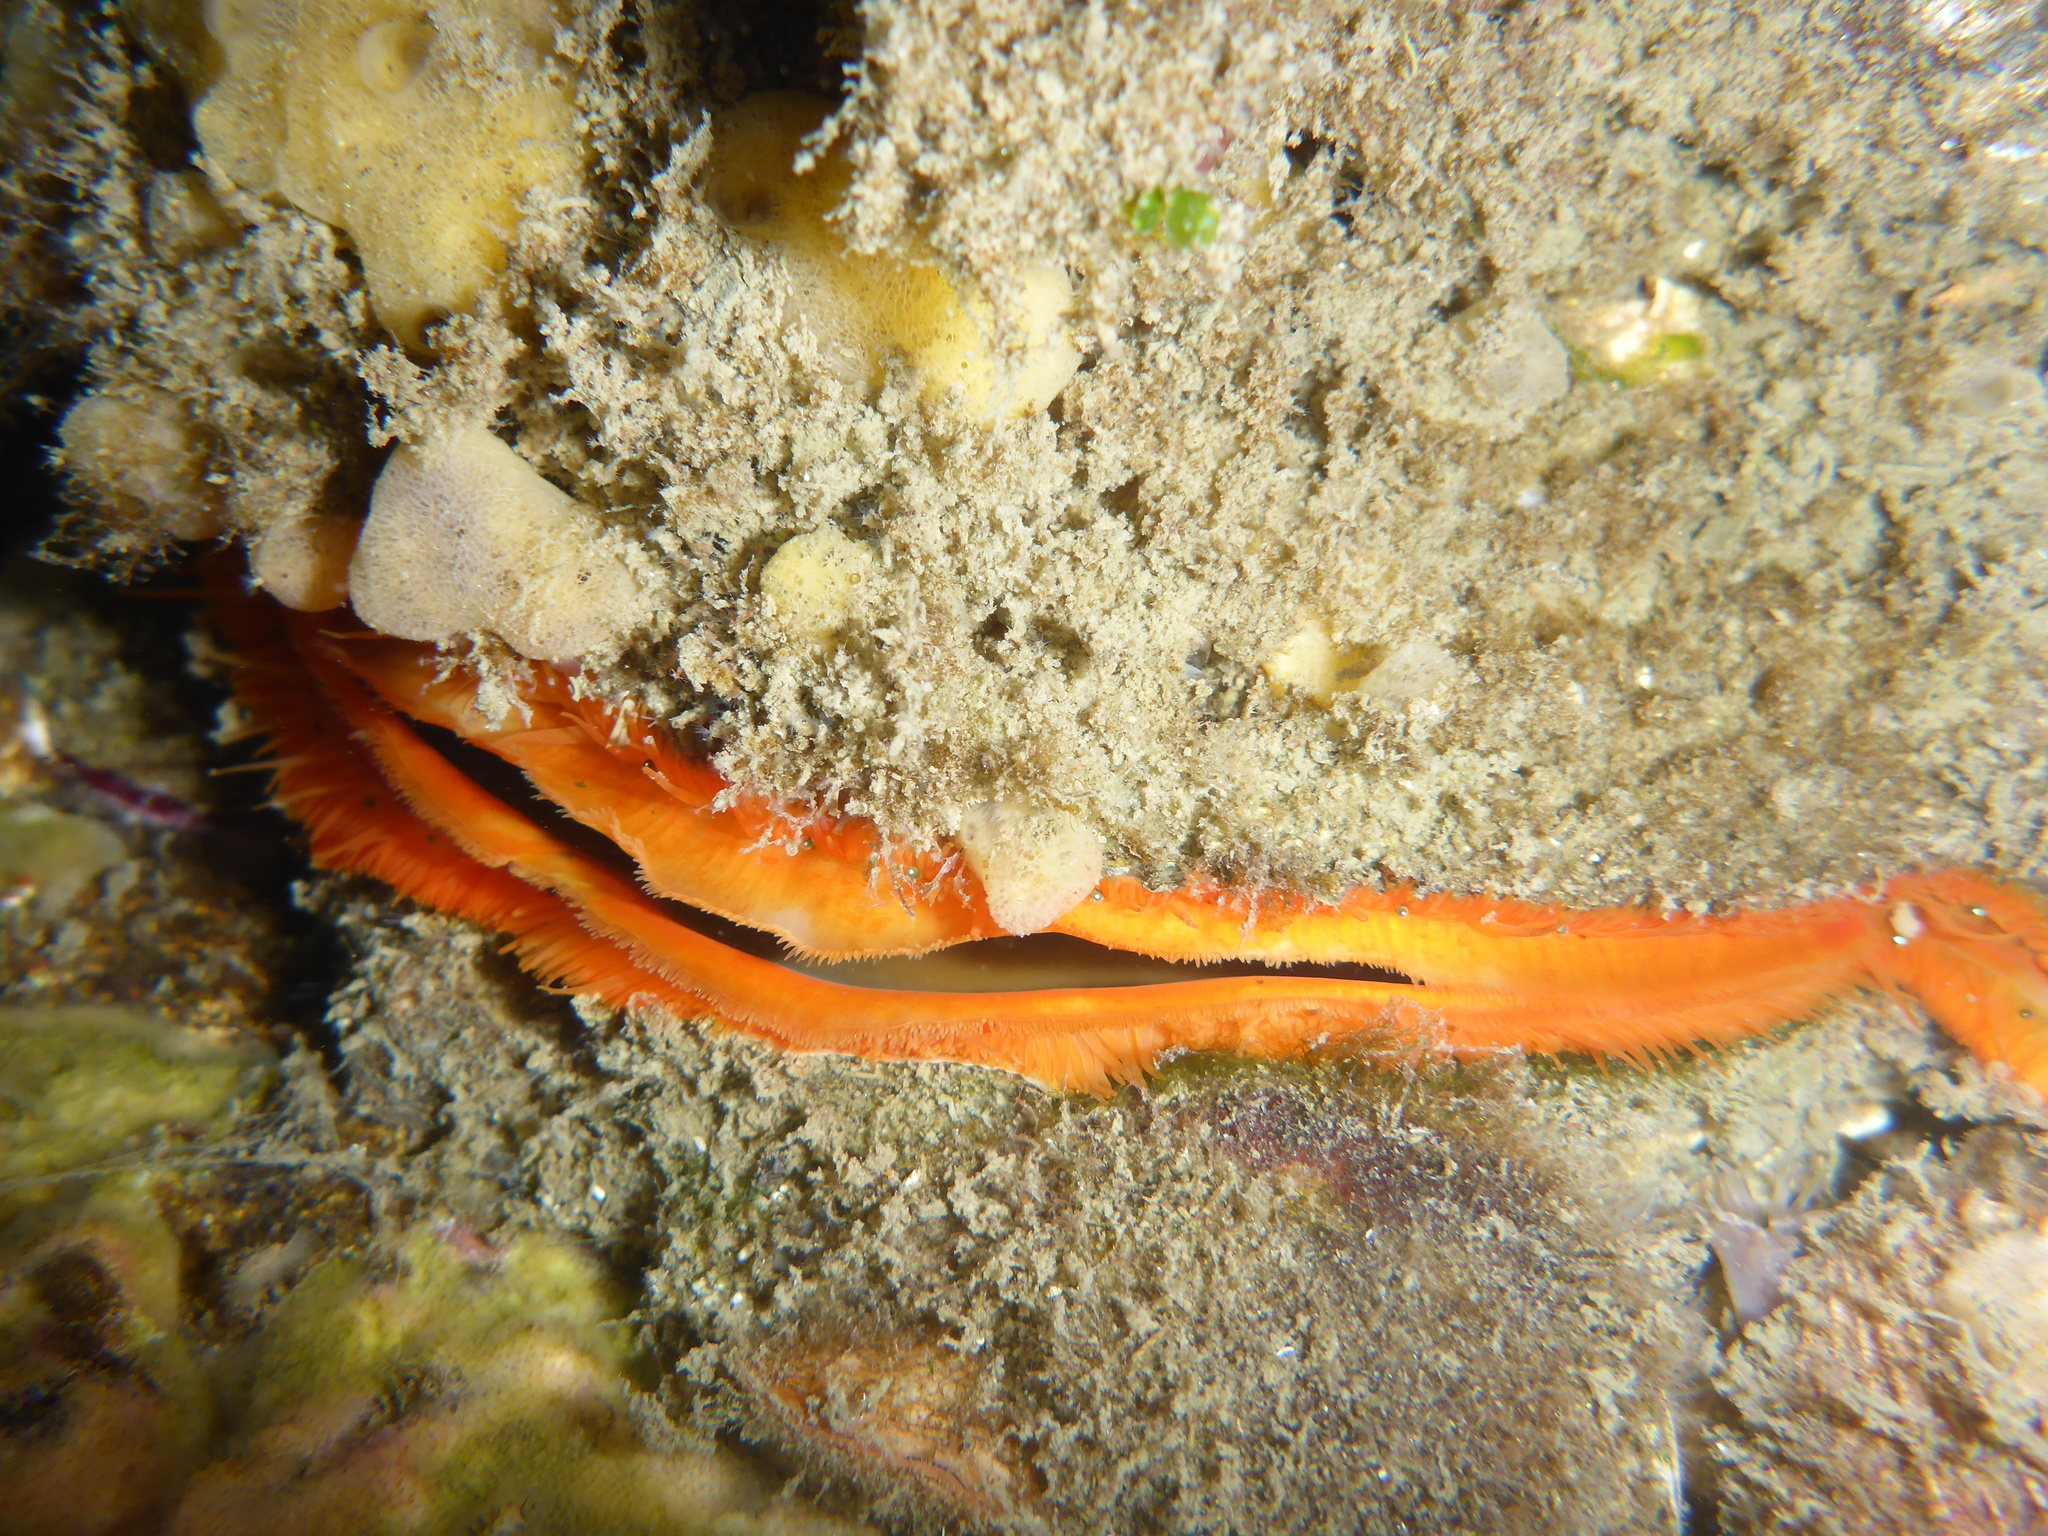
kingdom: Animalia
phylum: Mollusca
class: Bivalvia
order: Pectinida
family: Pectinidae
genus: Crassadoma
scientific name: Crassadoma gigantea
